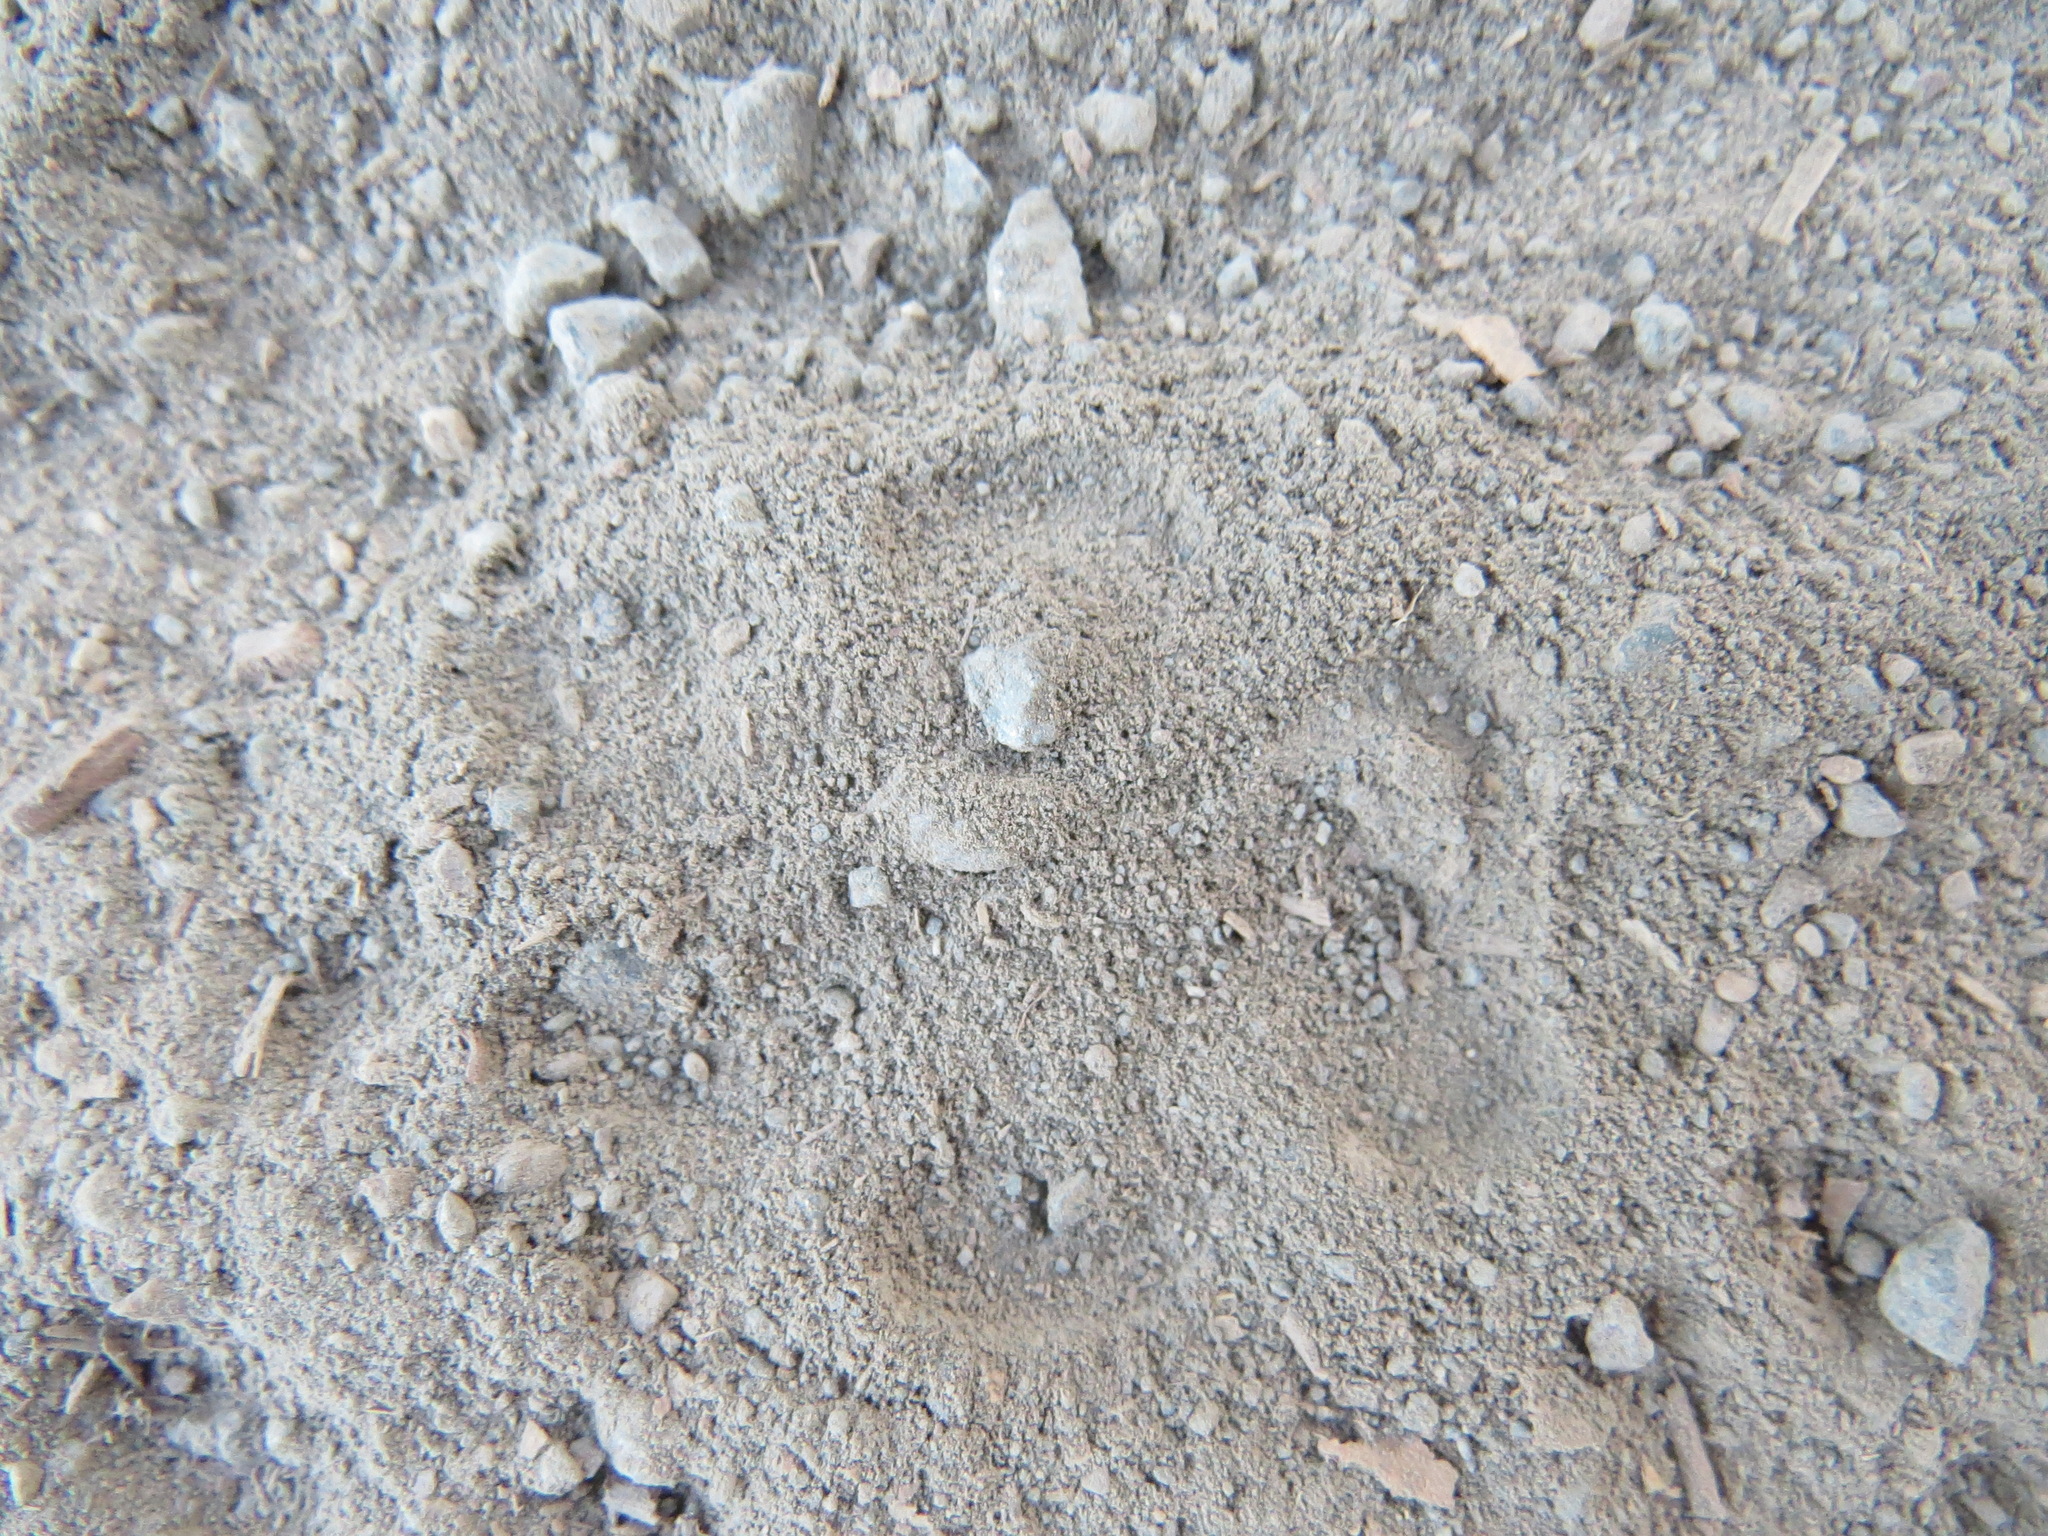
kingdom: Animalia
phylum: Chordata
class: Mammalia
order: Carnivora
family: Canidae
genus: Urocyon
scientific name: Urocyon cinereoargenteus
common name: Gray fox
